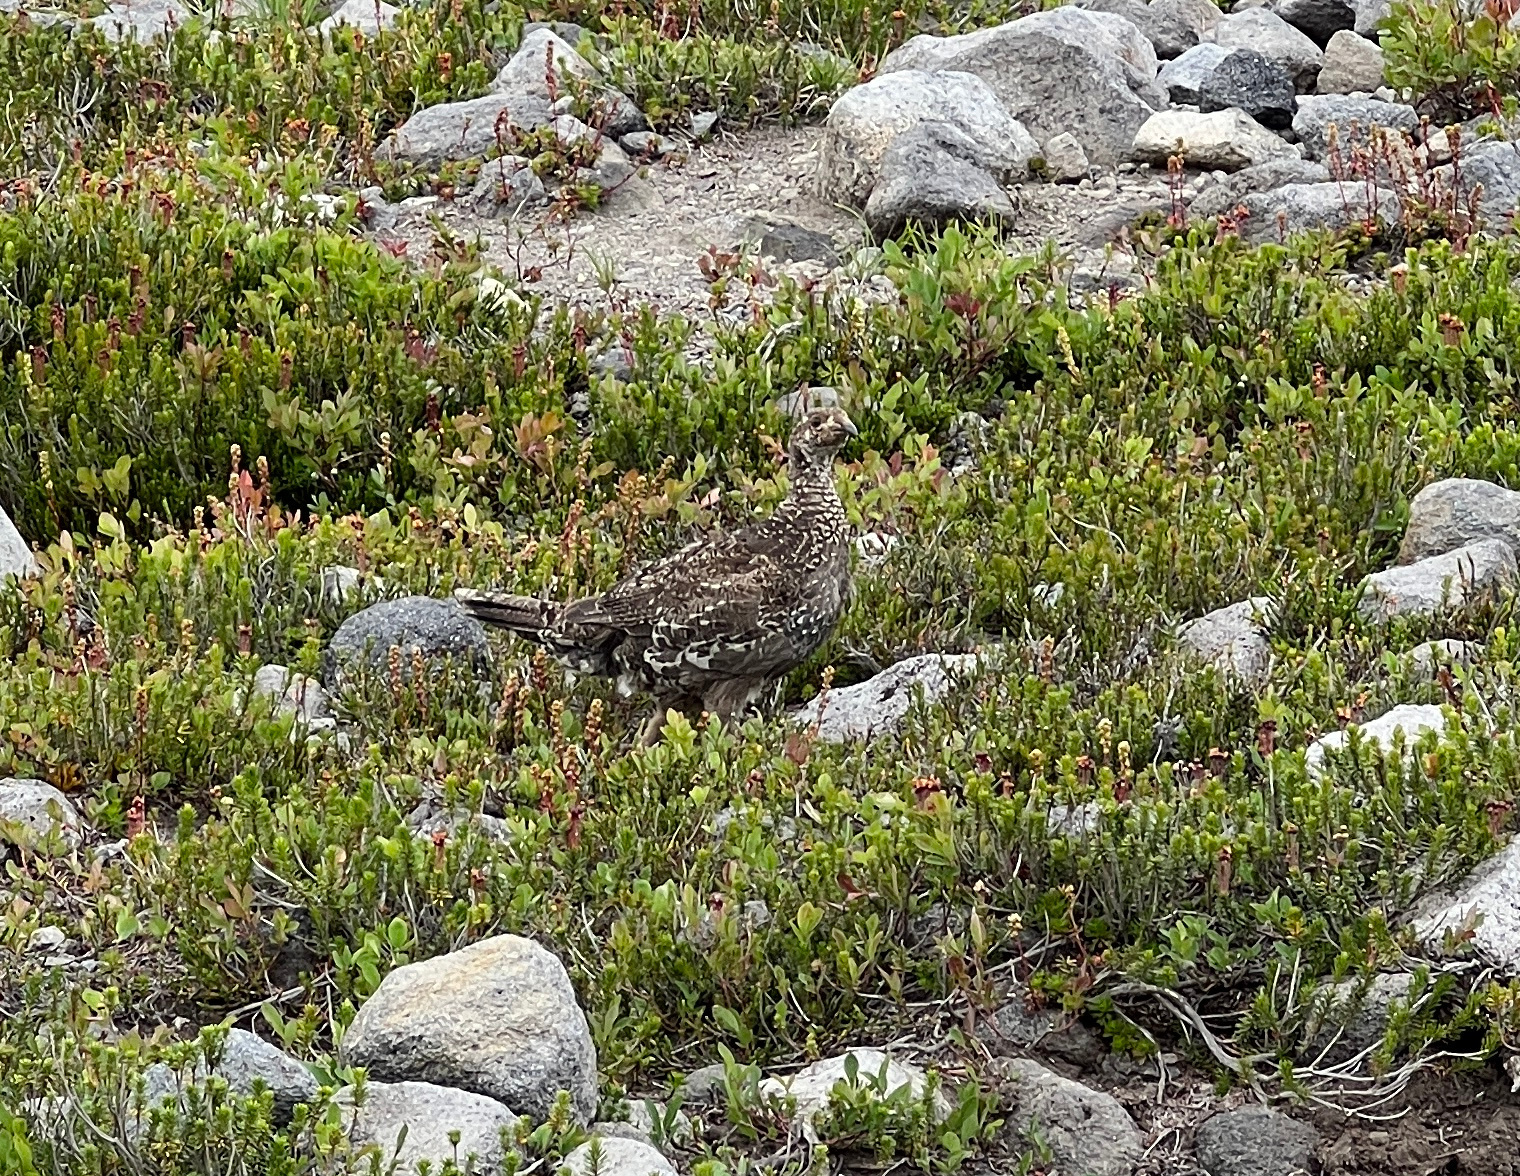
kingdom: Animalia
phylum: Chordata
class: Aves
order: Galliformes
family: Phasianidae
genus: Dendragapus
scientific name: Dendragapus fuliginosus
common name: Sooty grouse
